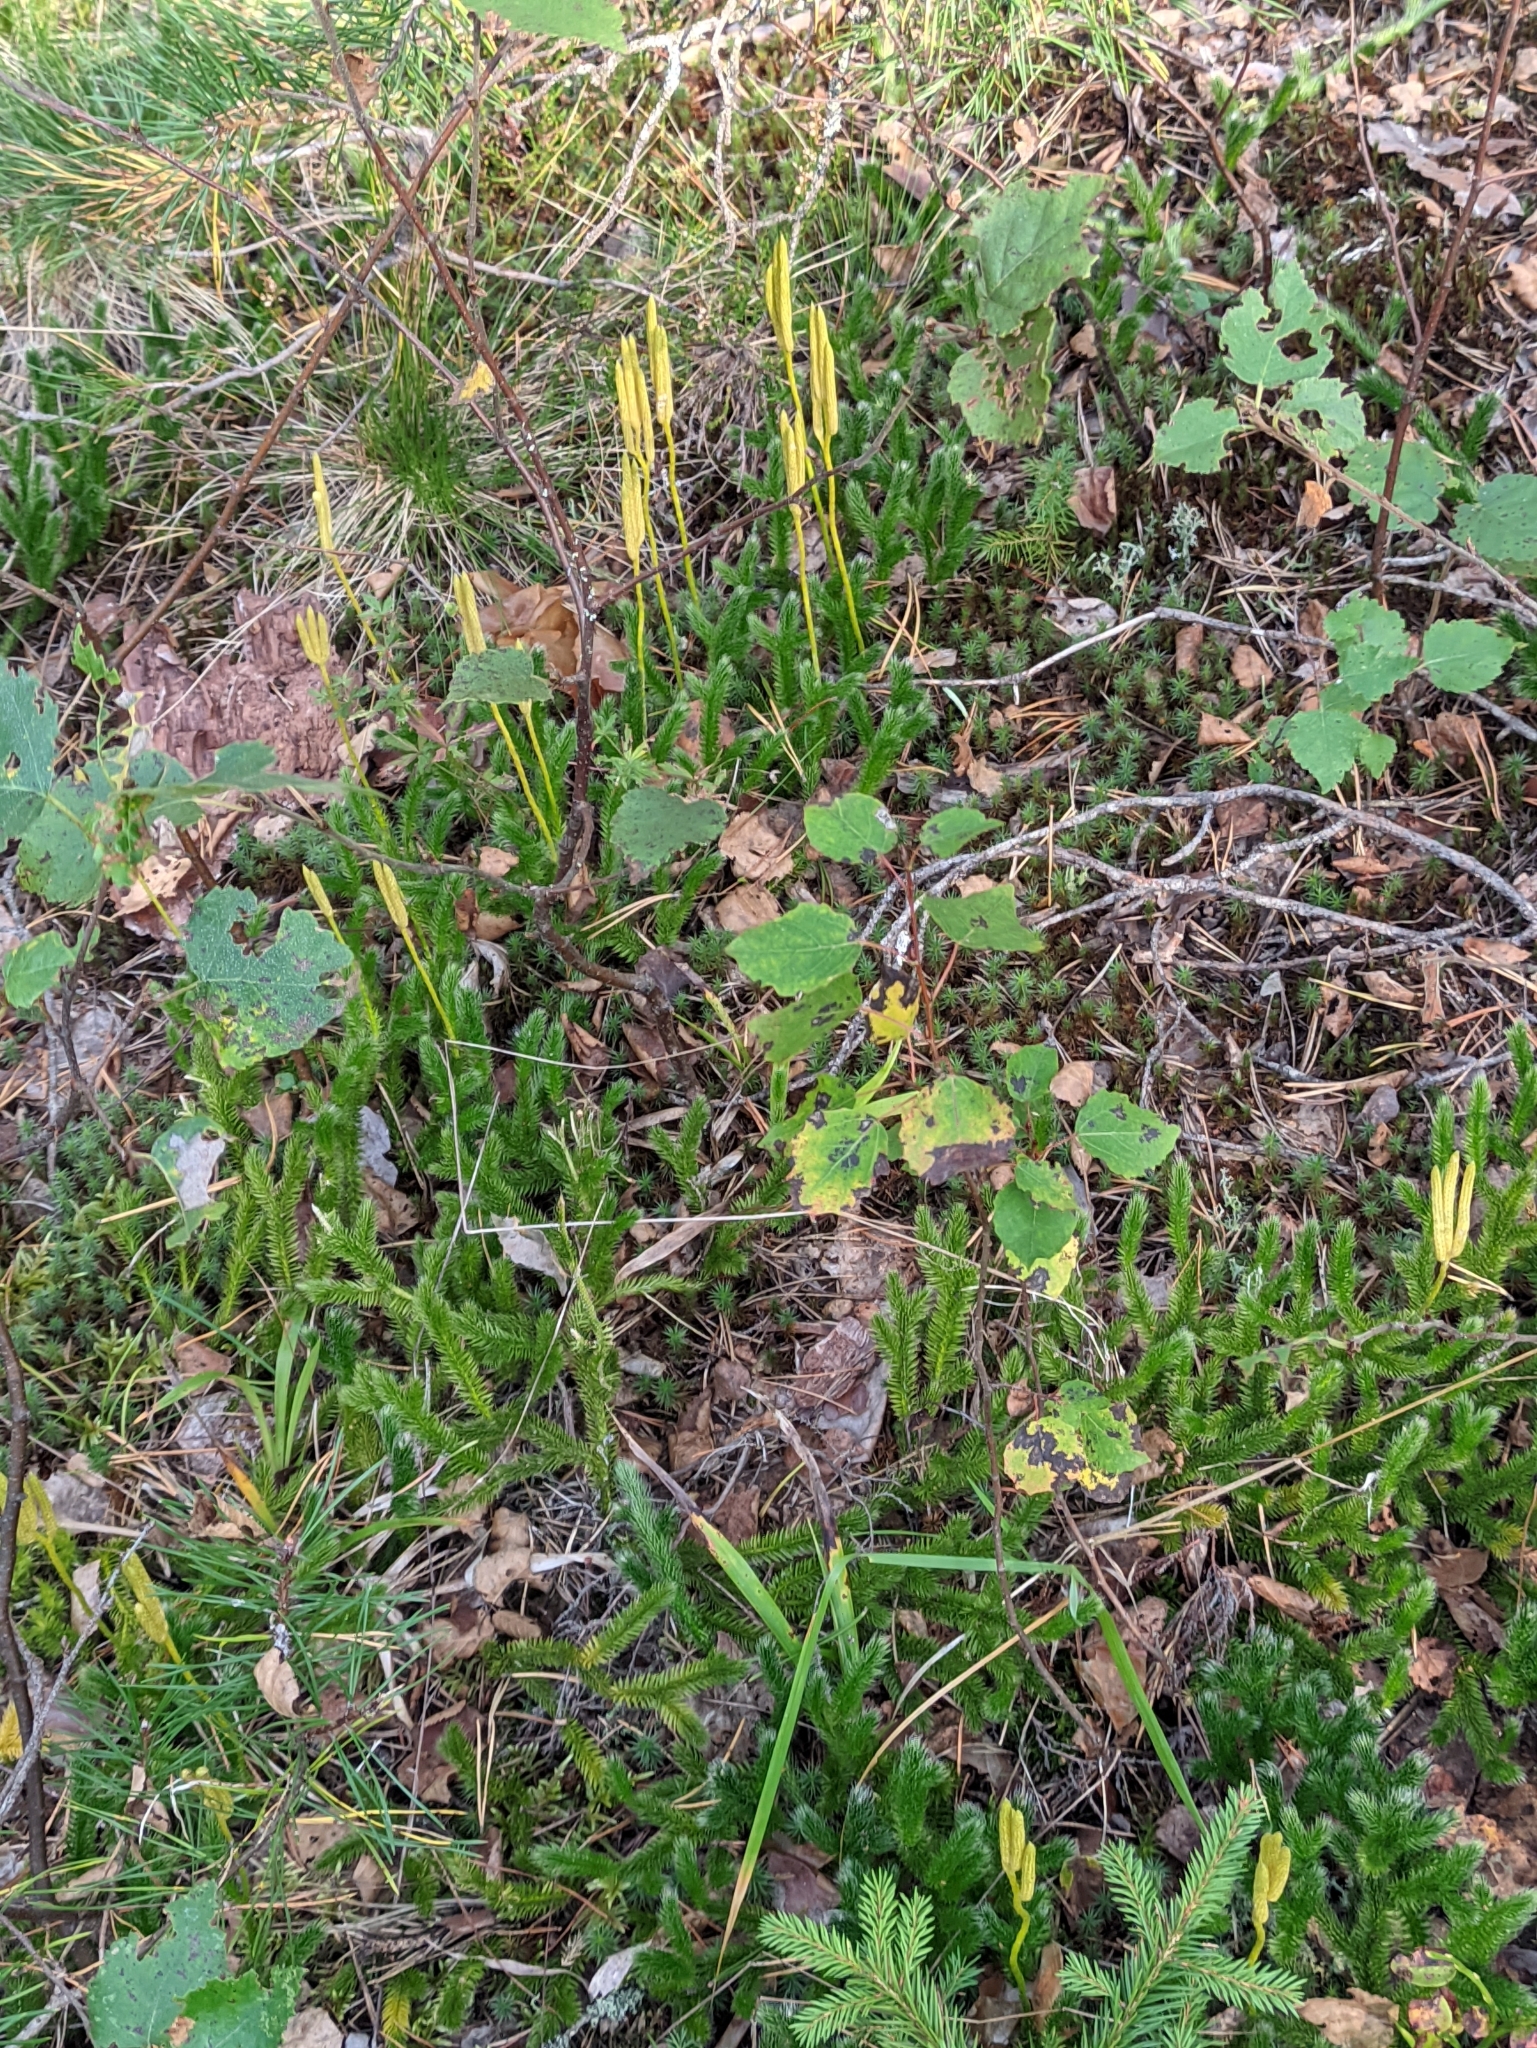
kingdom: Plantae
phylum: Tracheophyta
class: Lycopodiopsida
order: Lycopodiales
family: Lycopodiaceae
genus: Lycopodium
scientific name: Lycopodium clavatum
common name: Stag's-horn clubmoss
